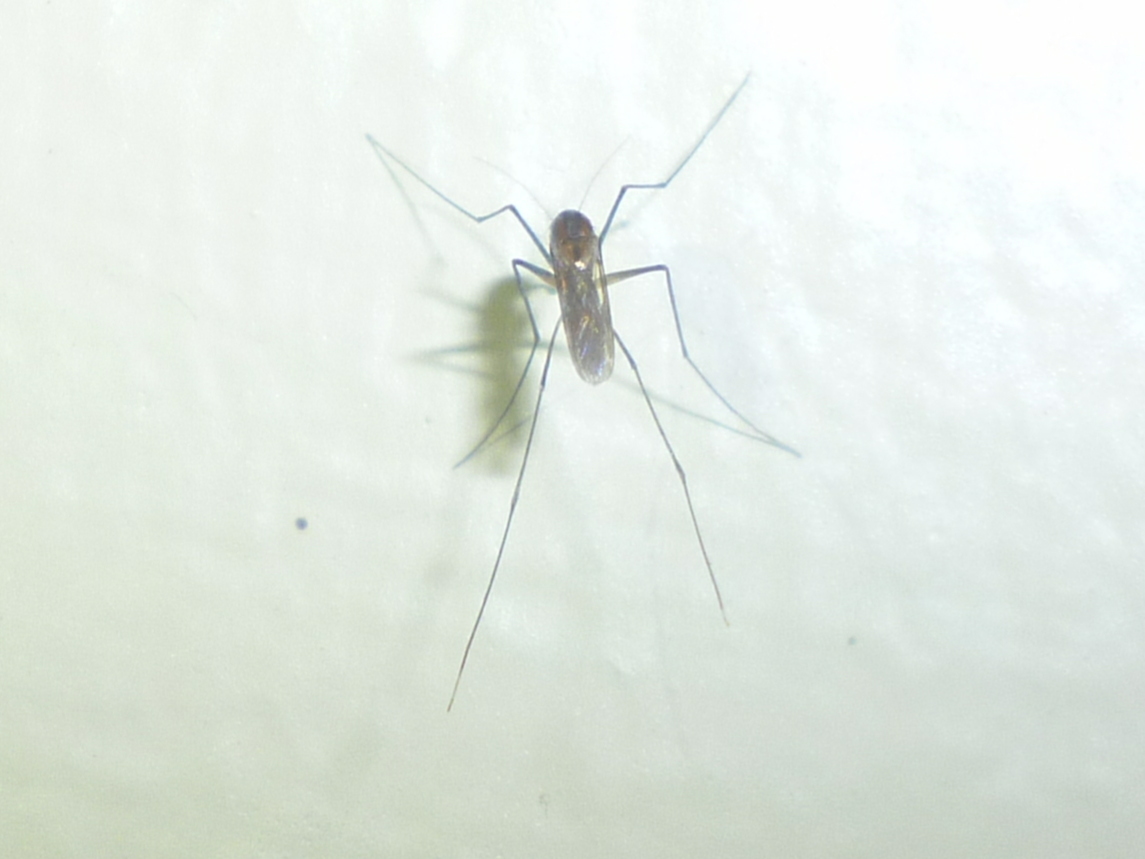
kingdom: Animalia
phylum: Arthropoda
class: Insecta
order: Diptera
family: Culicidae
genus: Uranotaenia
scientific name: Uranotaenia sapphirina
